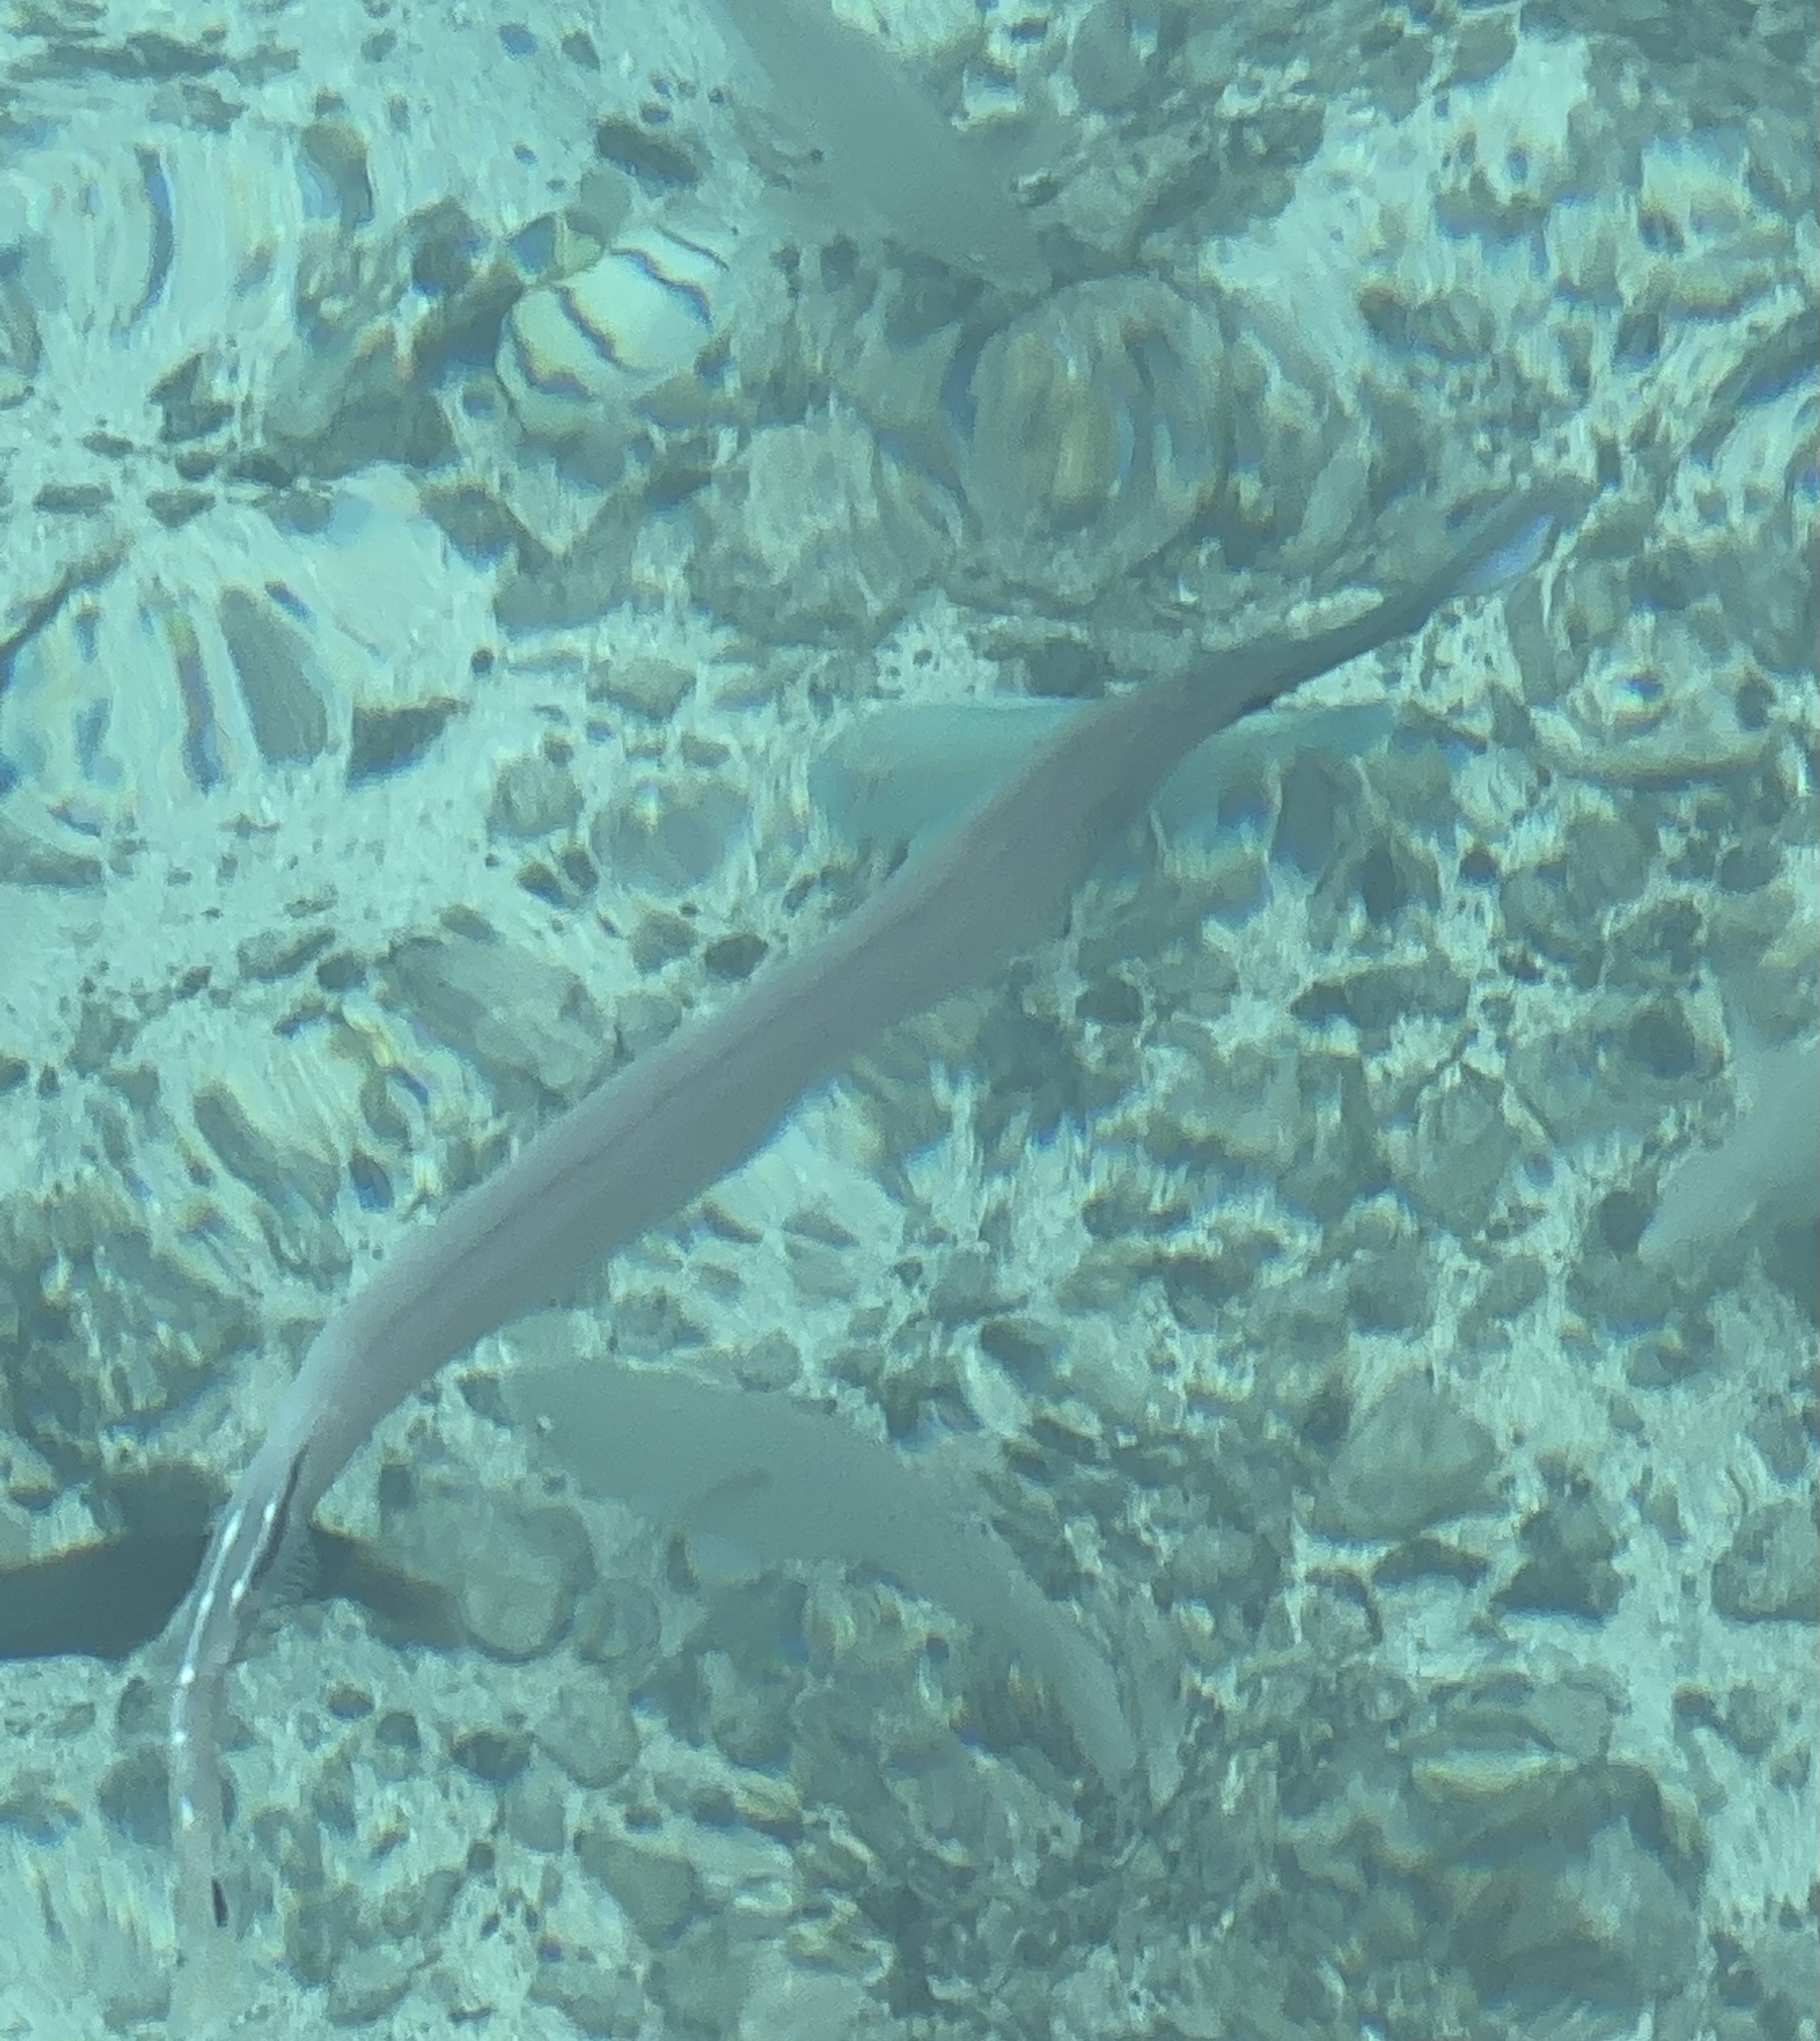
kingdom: Animalia
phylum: Chordata
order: Syngnathiformes
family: Aulostomidae
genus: Aulostomus
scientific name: Aulostomus chinensis
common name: Chinese trumpetfish
